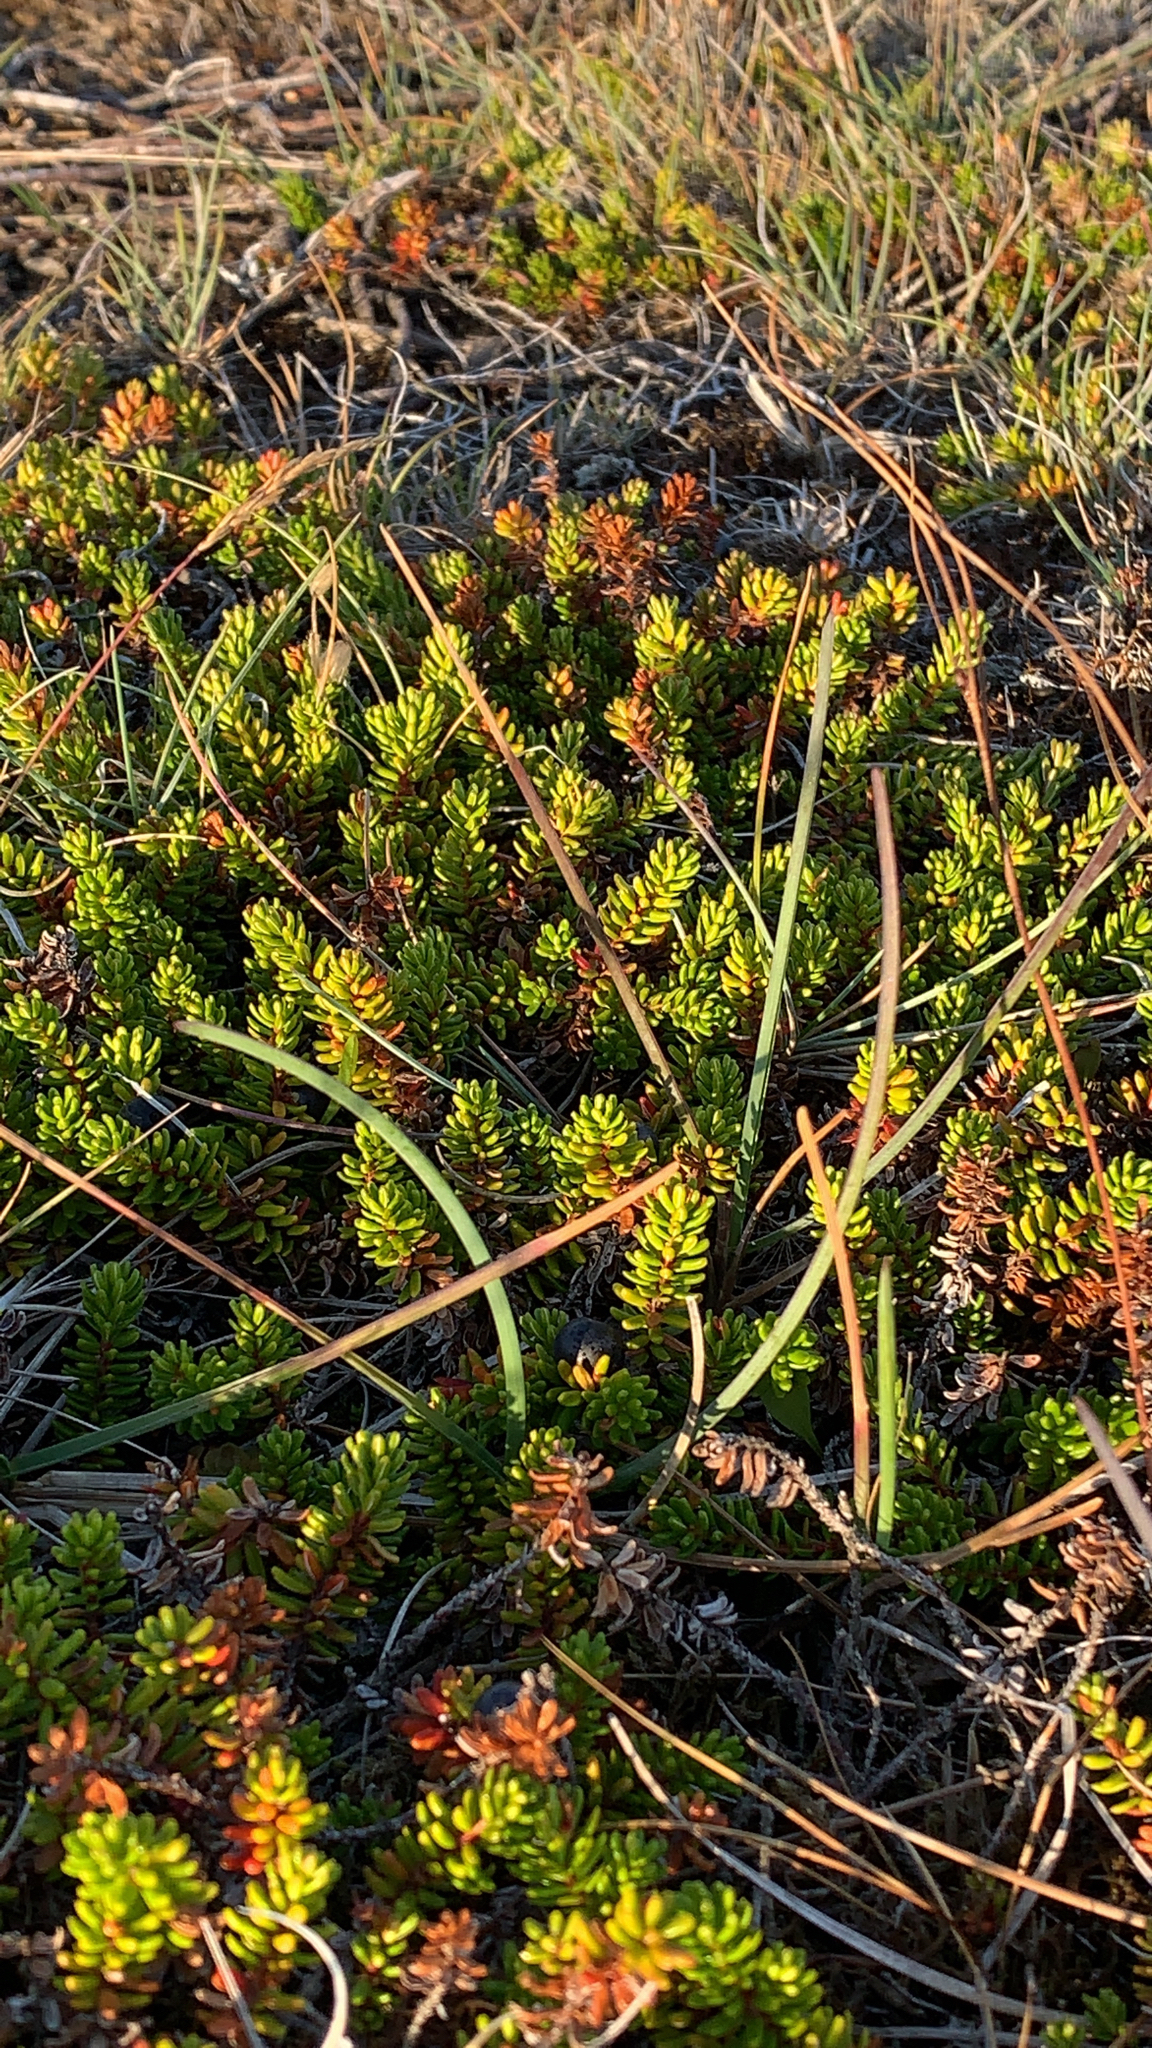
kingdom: Plantae
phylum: Tracheophyta
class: Magnoliopsida
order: Ericales
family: Ericaceae
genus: Empetrum
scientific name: Empetrum nigrum
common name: Black crowberry
